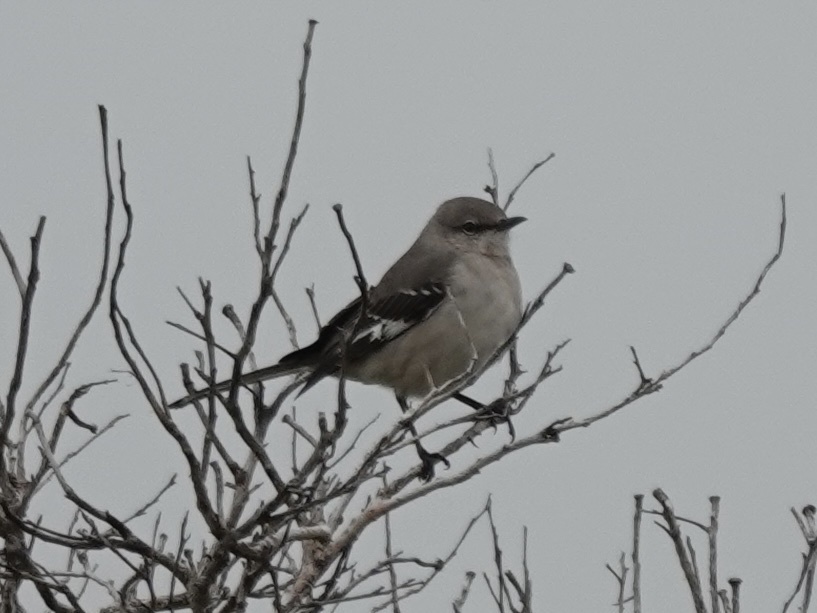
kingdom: Animalia
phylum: Chordata
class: Aves
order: Passeriformes
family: Mimidae
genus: Mimus
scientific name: Mimus polyglottos
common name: Northern mockingbird
